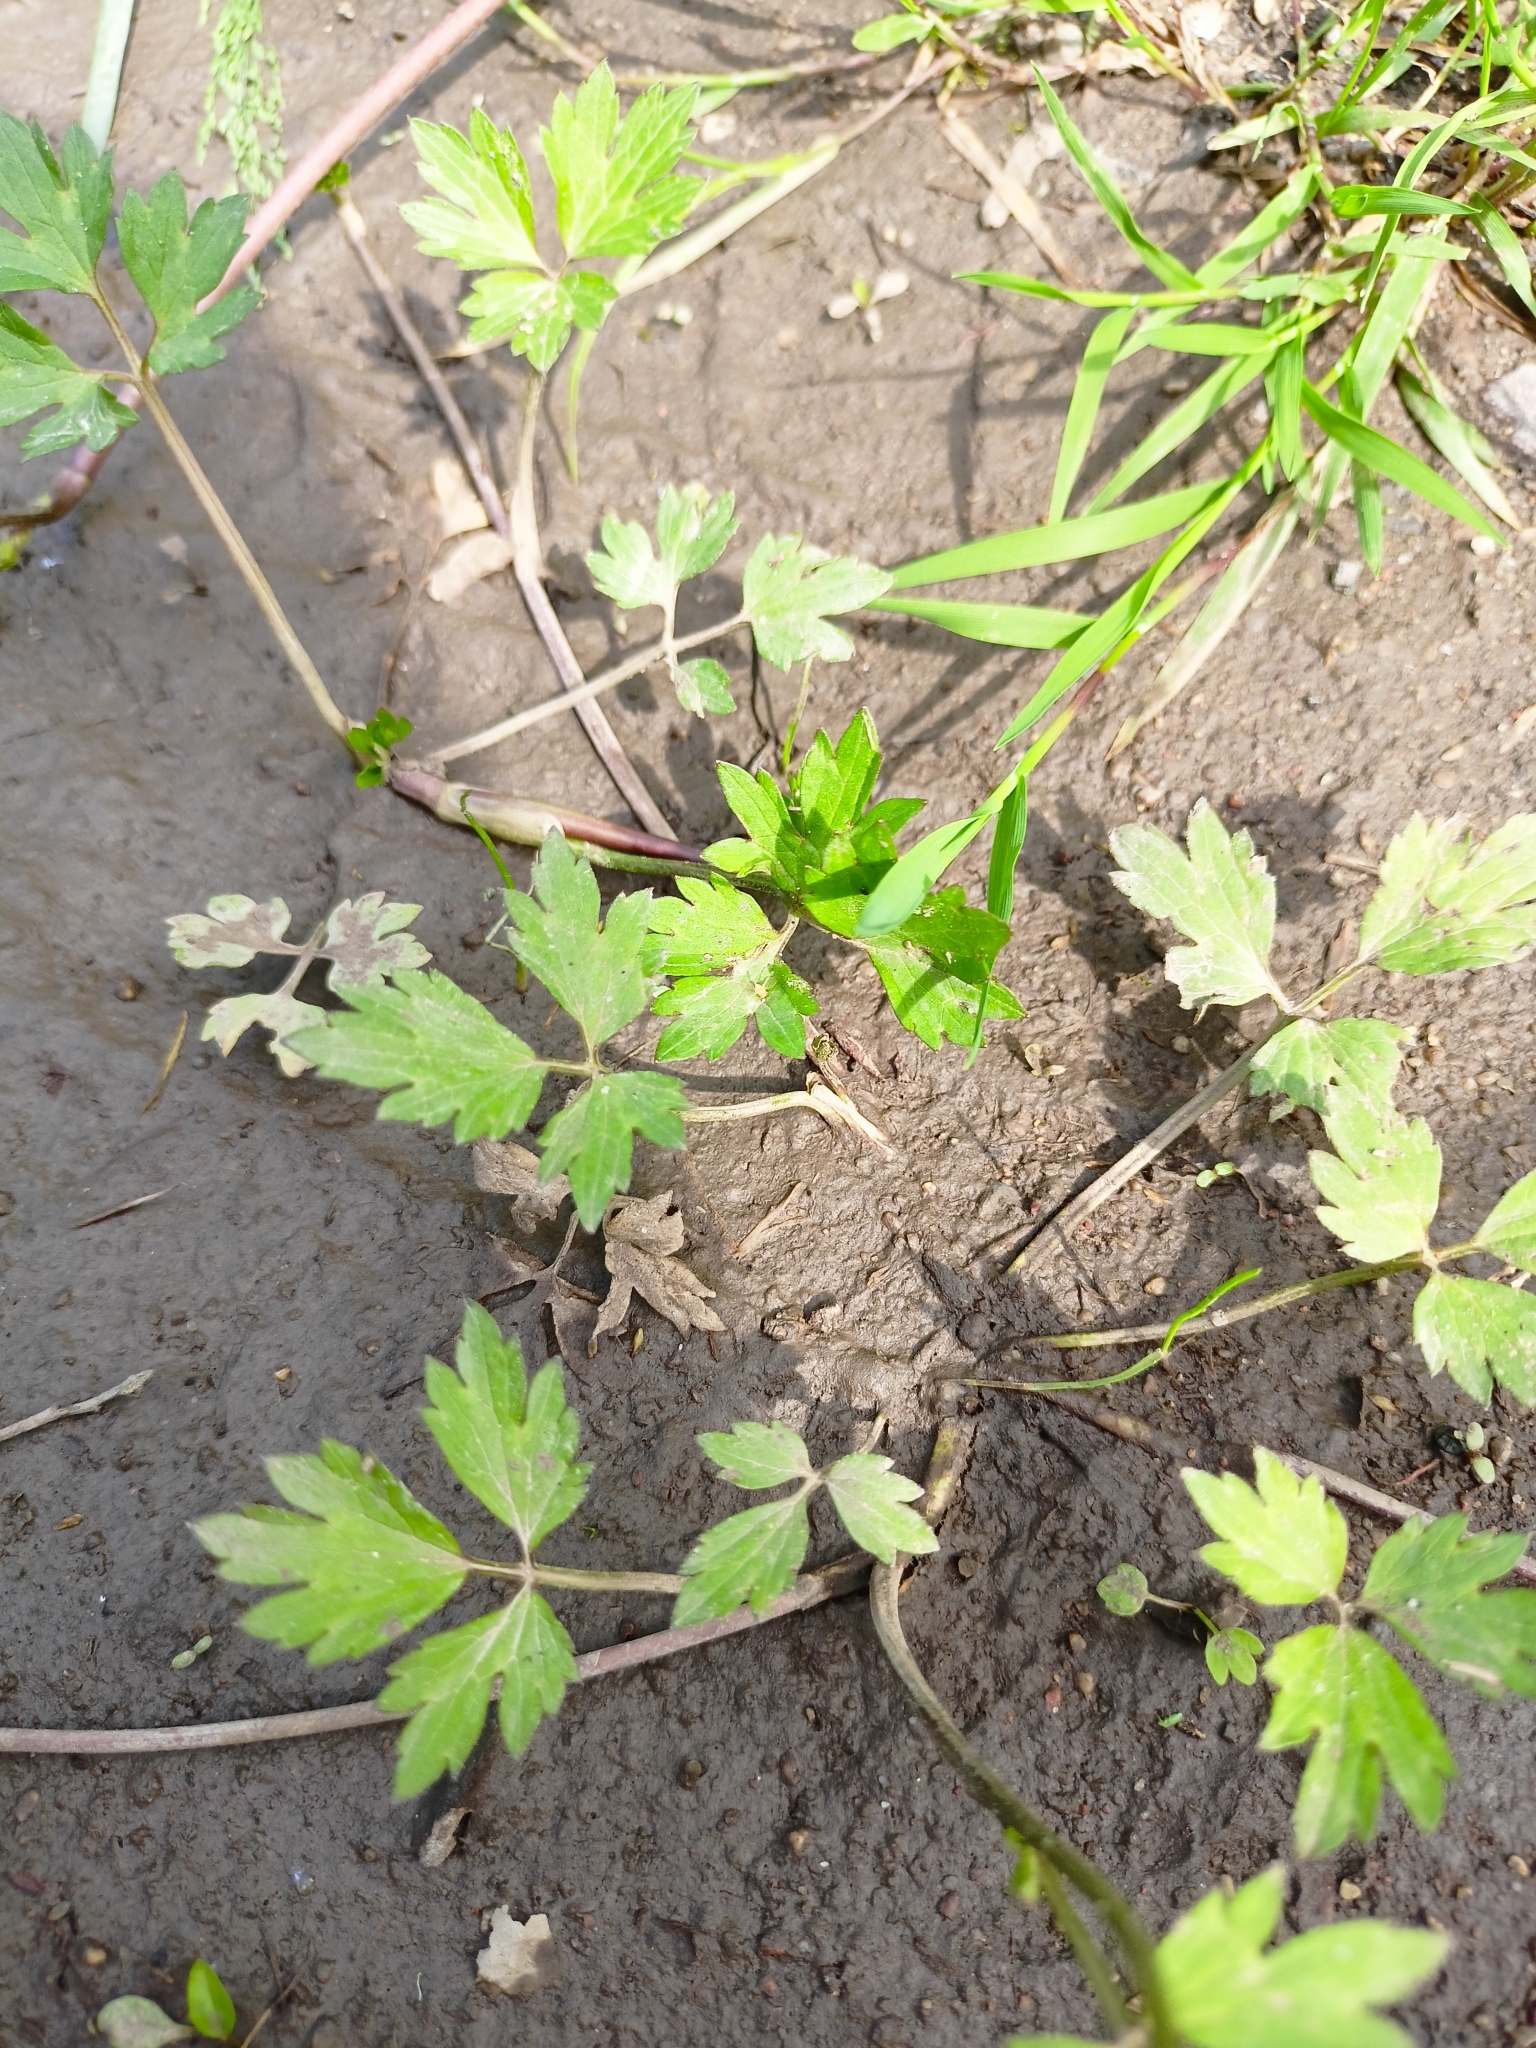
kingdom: Plantae
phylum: Tracheophyta
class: Magnoliopsida
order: Ranunculales
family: Ranunculaceae
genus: Ranunculus
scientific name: Ranunculus repens
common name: Creeping buttercup
